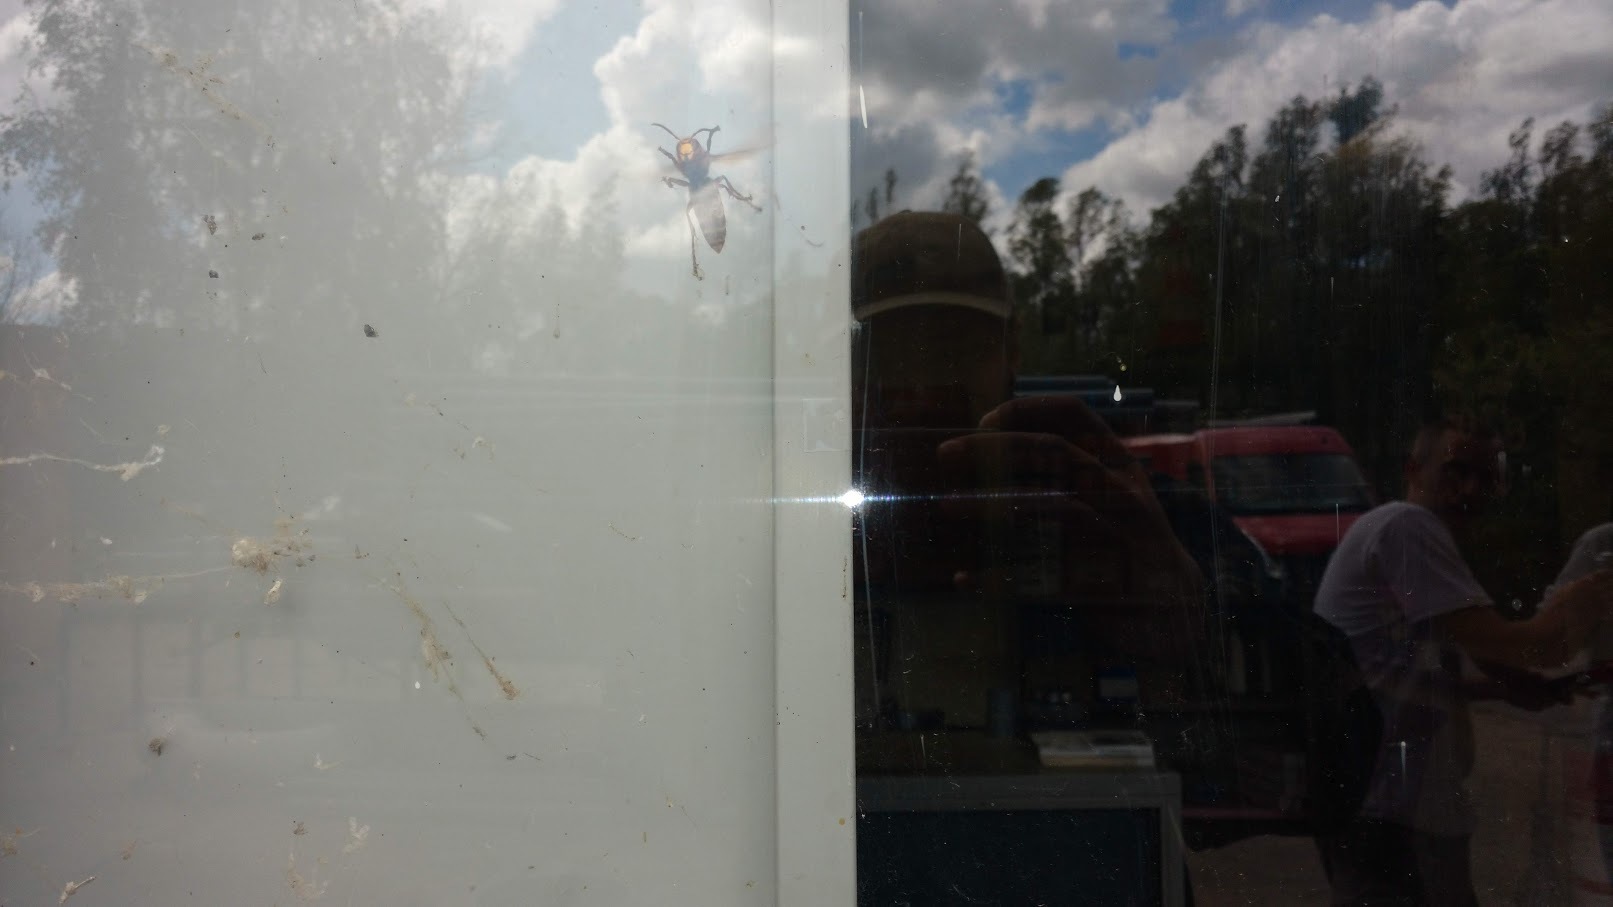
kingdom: Animalia
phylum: Arthropoda
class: Insecta
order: Hymenoptera
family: Vespidae
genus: Vespa
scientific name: Vespa crabro
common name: Hornet
